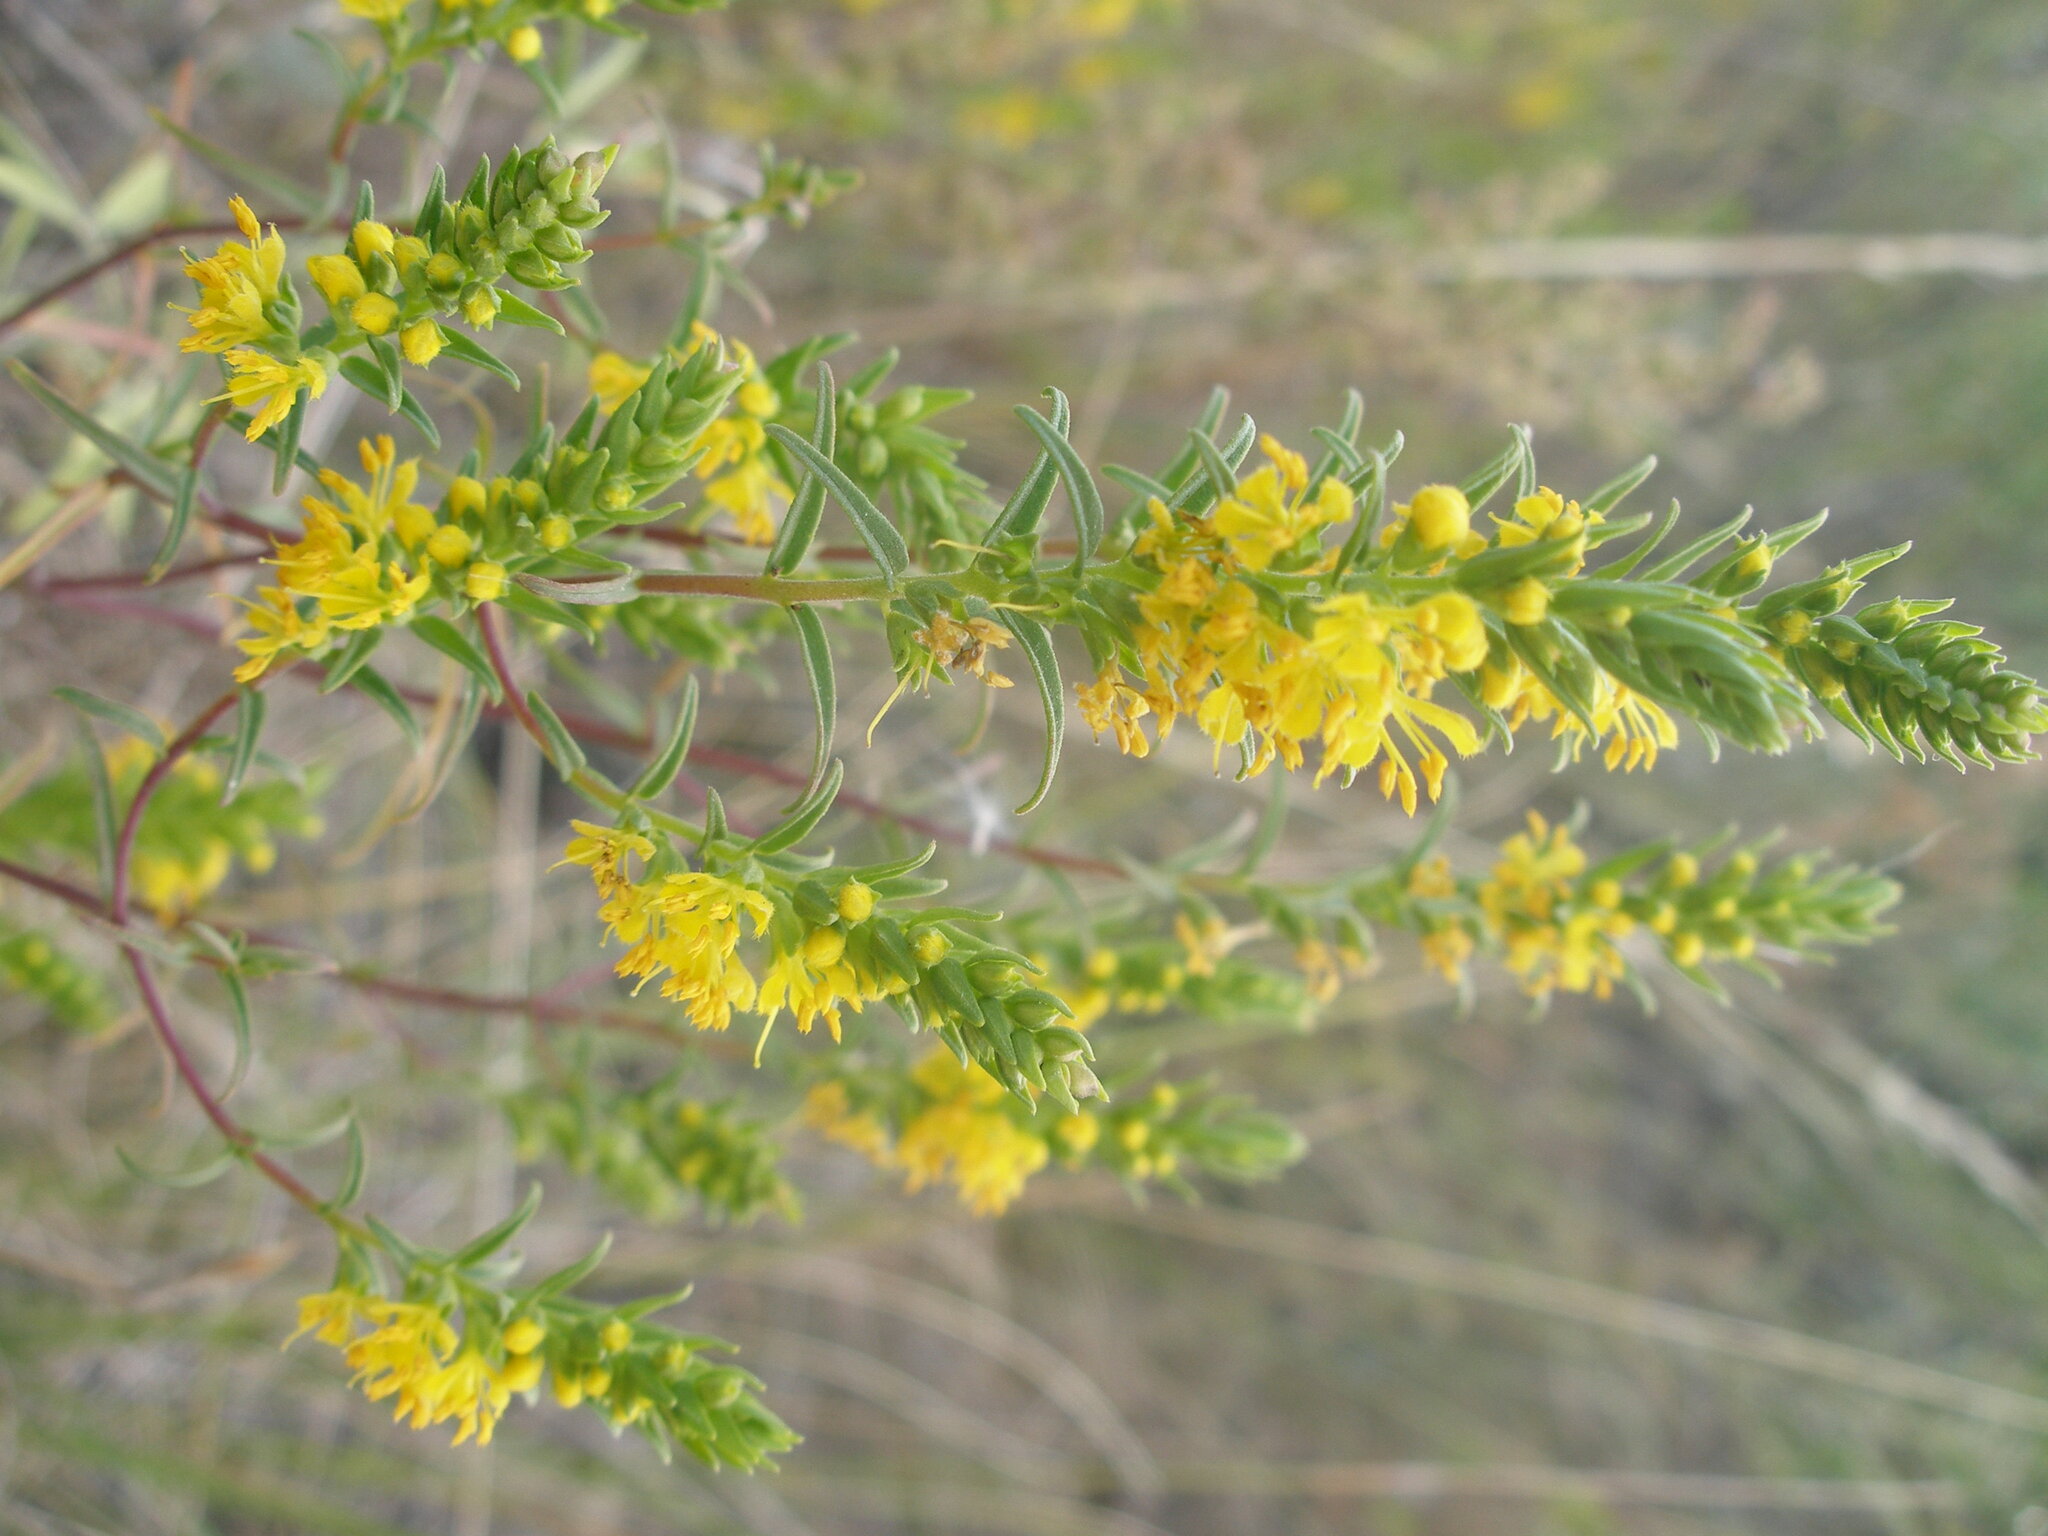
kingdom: Plantae
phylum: Tracheophyta
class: Magnoliopsida
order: Lamiales
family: Orobanchaceae
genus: Odontites
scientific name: Odontites luteus
